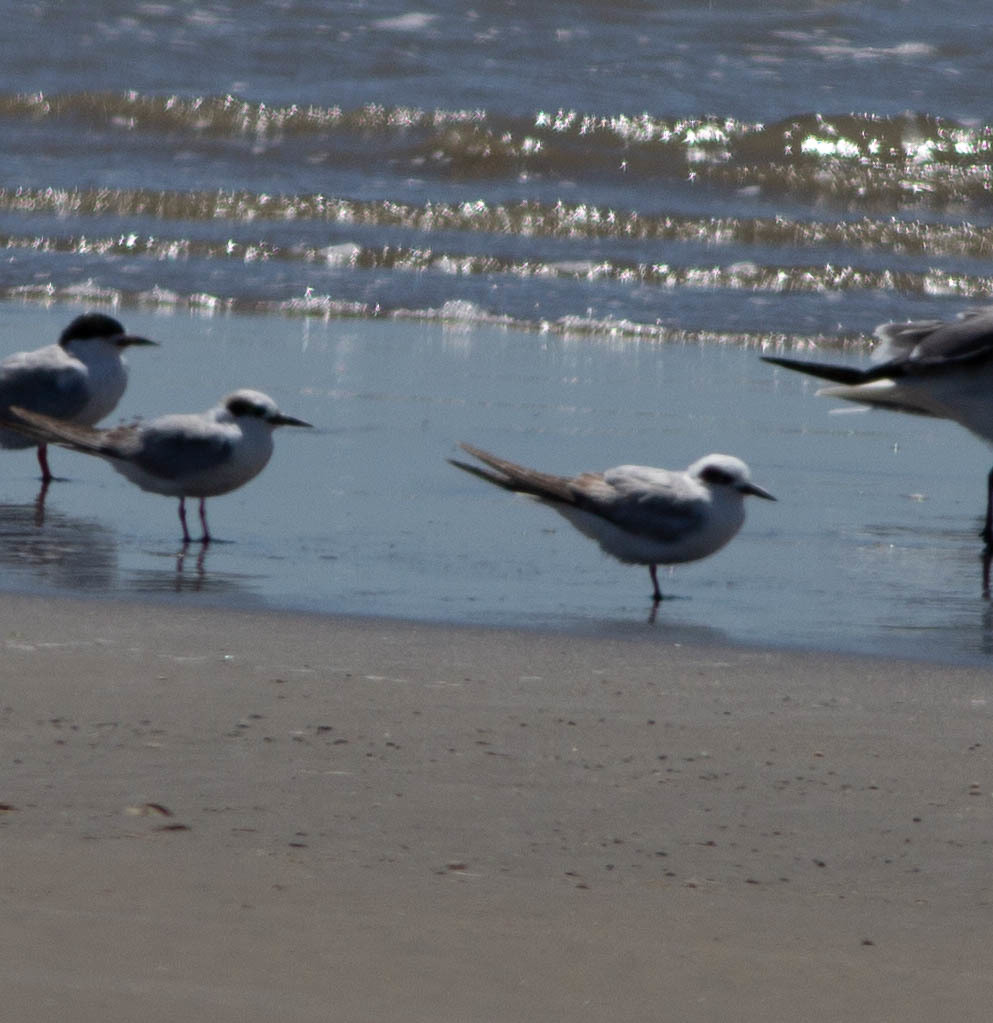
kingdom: Animalia
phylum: Chordata
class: Aves
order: Charadriiformes
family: Laridae
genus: Sterna
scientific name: Sterna forsteri
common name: Forster's tern
